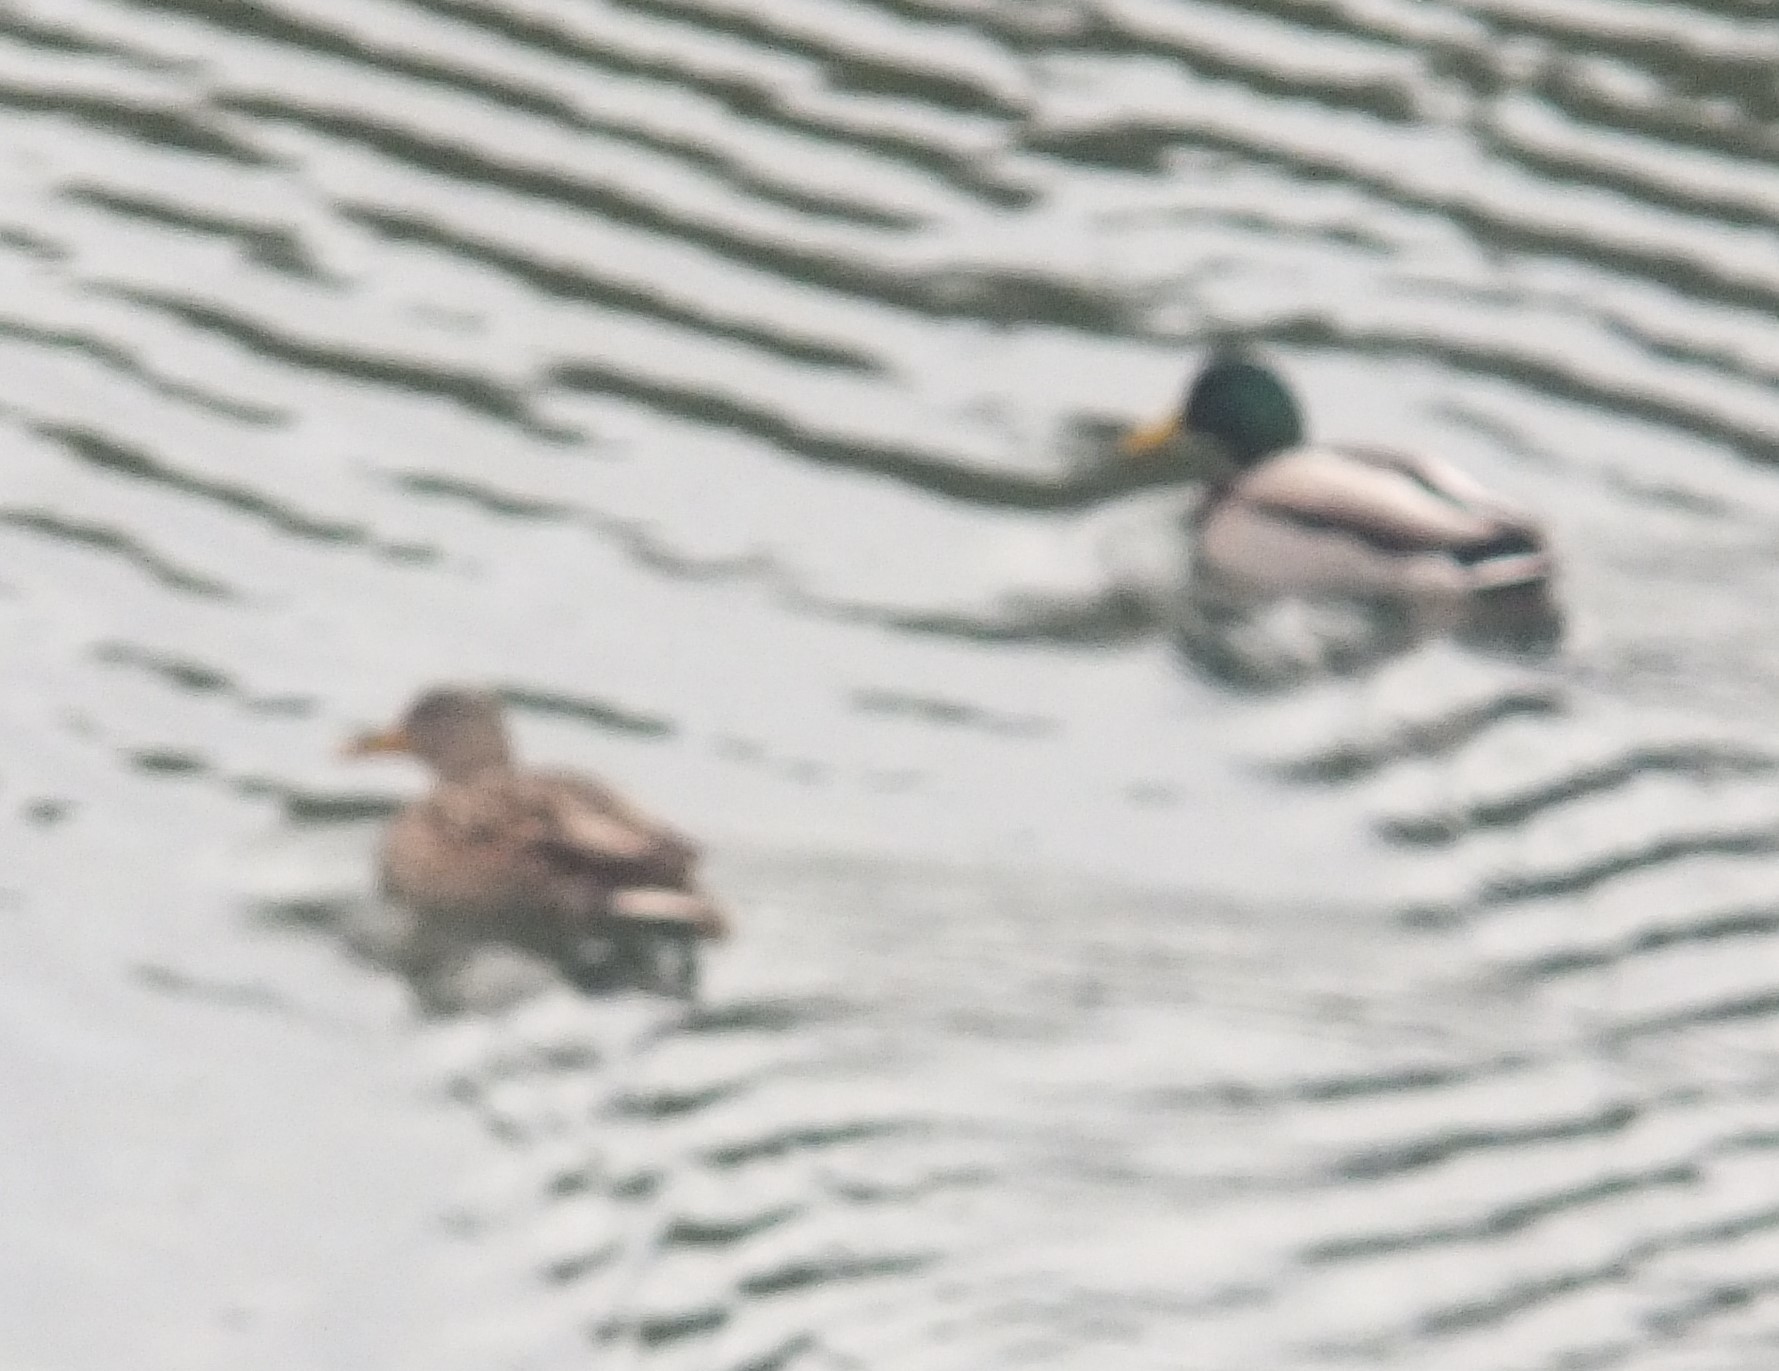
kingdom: Animalia
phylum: Chordata
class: Aves
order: Anseriformes
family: Anatidae
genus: Anas
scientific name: Anas platyrhynchos
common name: Mallard
